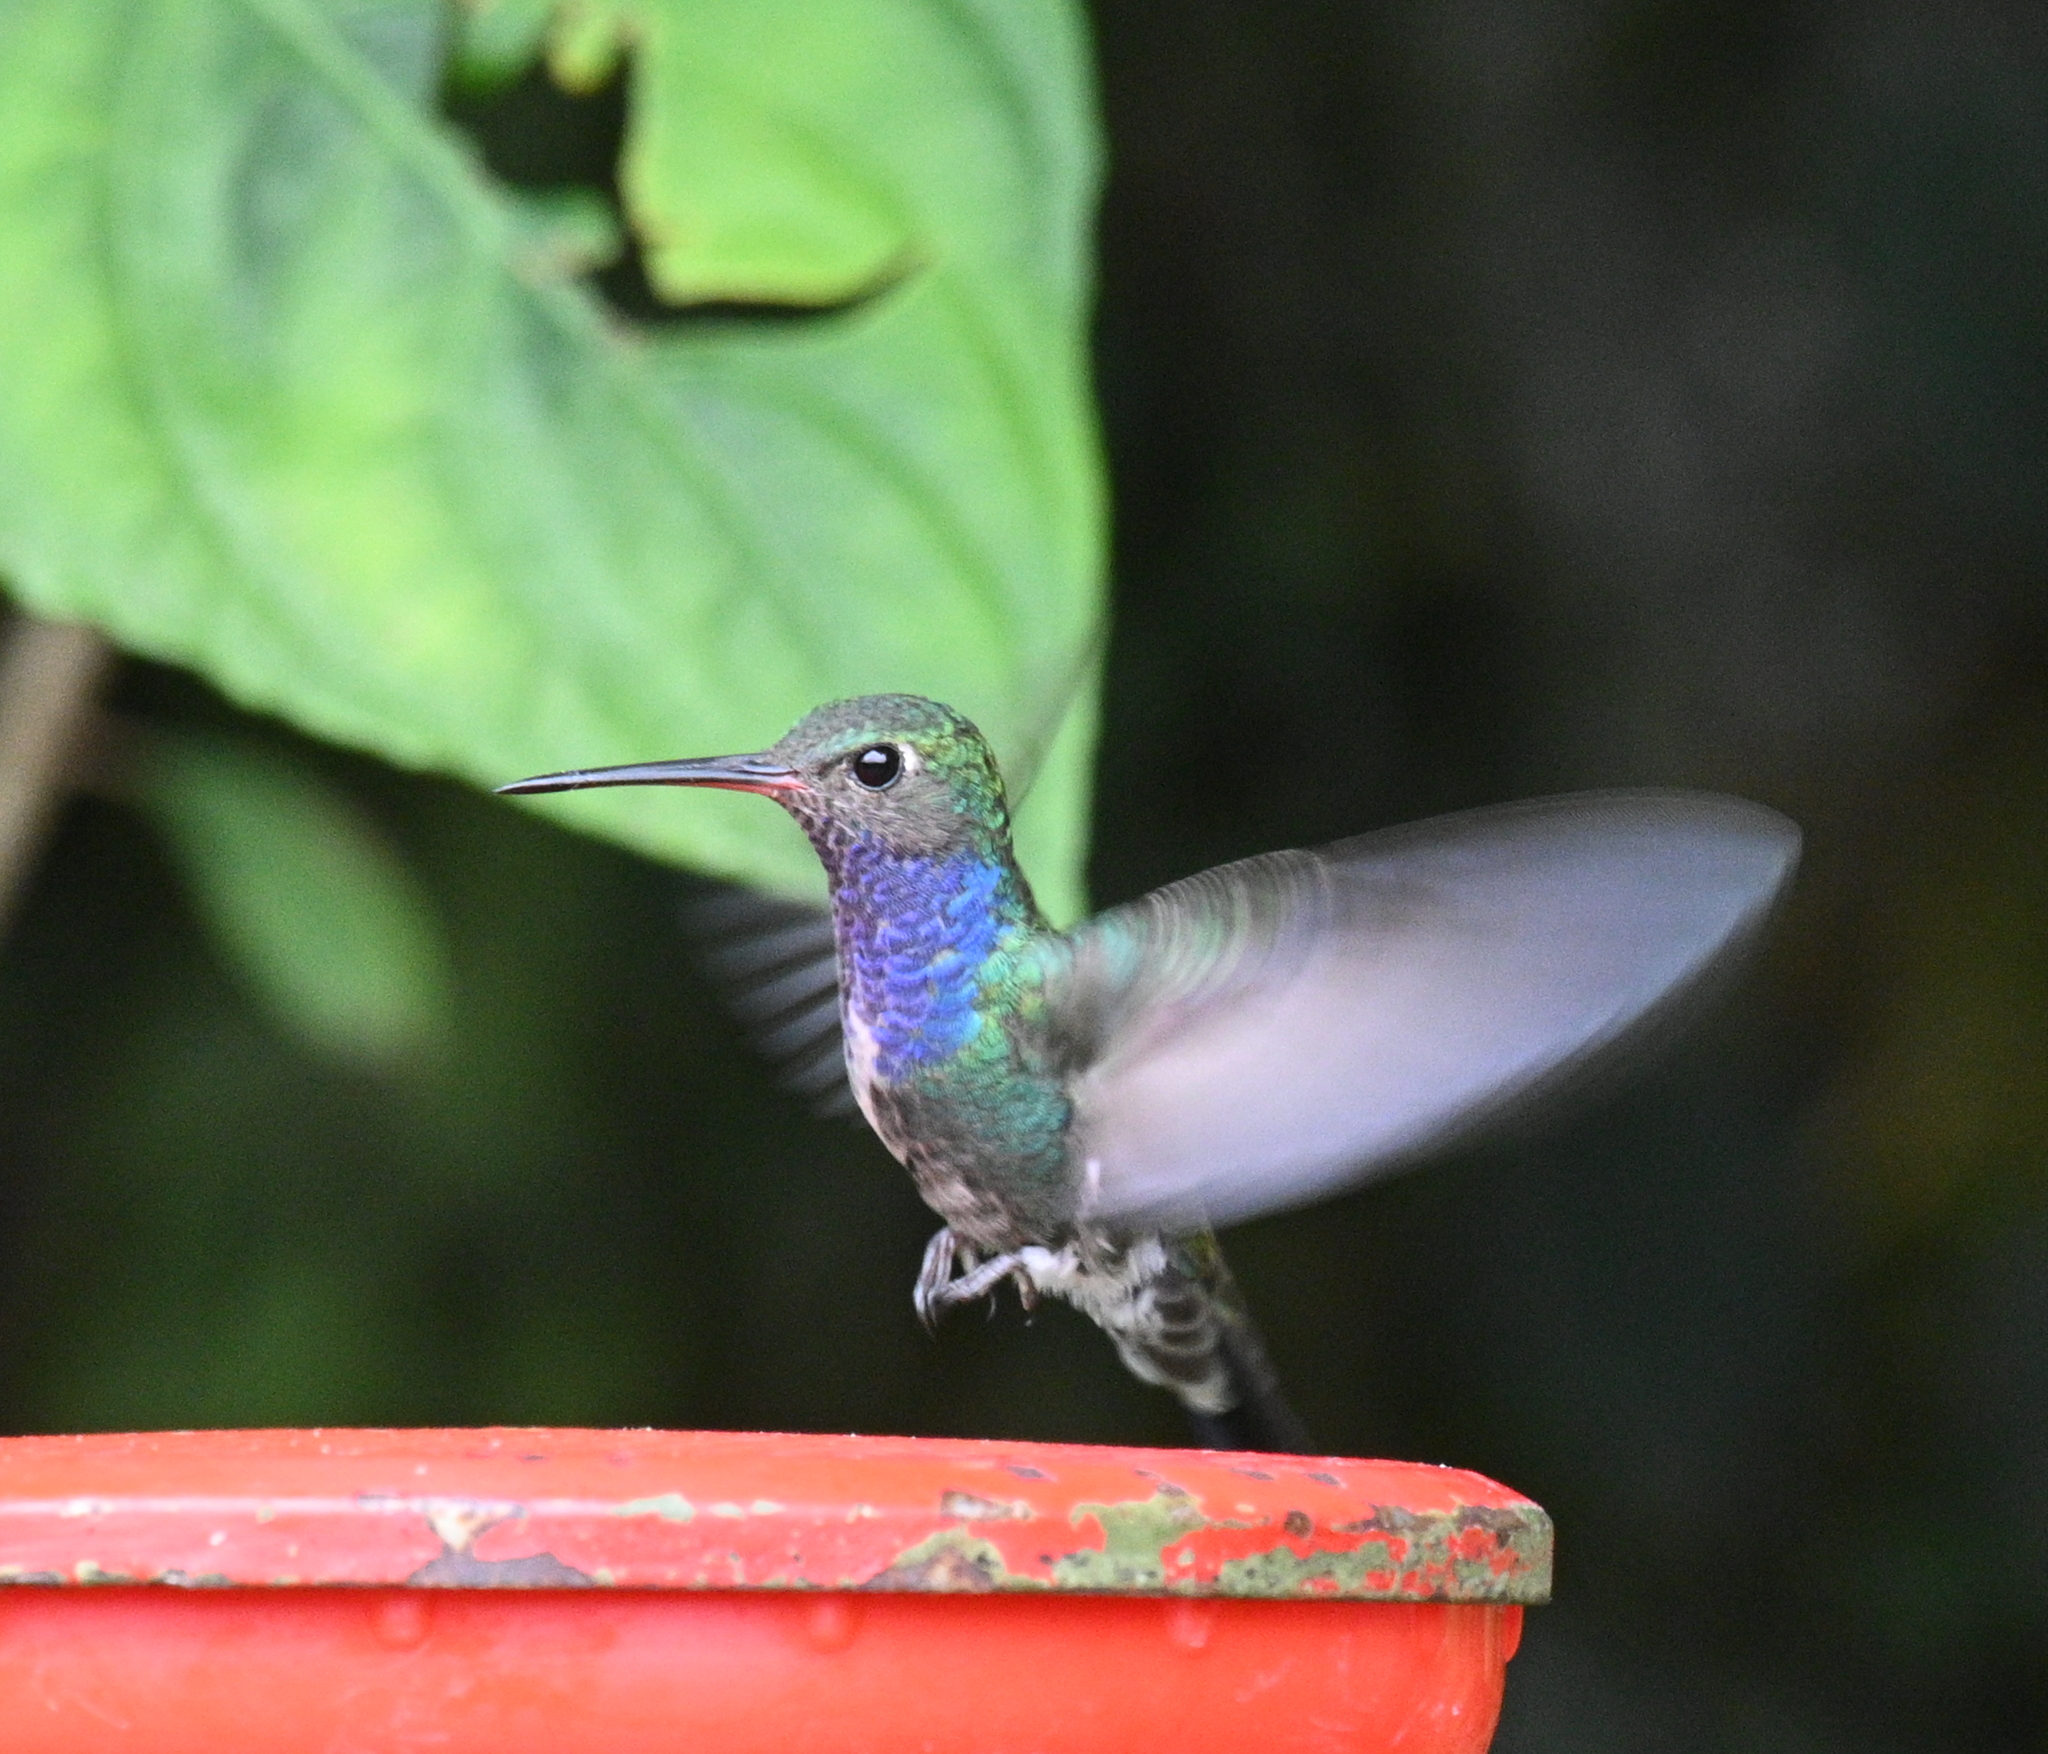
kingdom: Animalia
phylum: Chordata
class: Aves
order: Apodiformes
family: Trochilidae
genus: Chionomesa
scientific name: Chionomesa lactea
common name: Sapphire-spangled emerald
